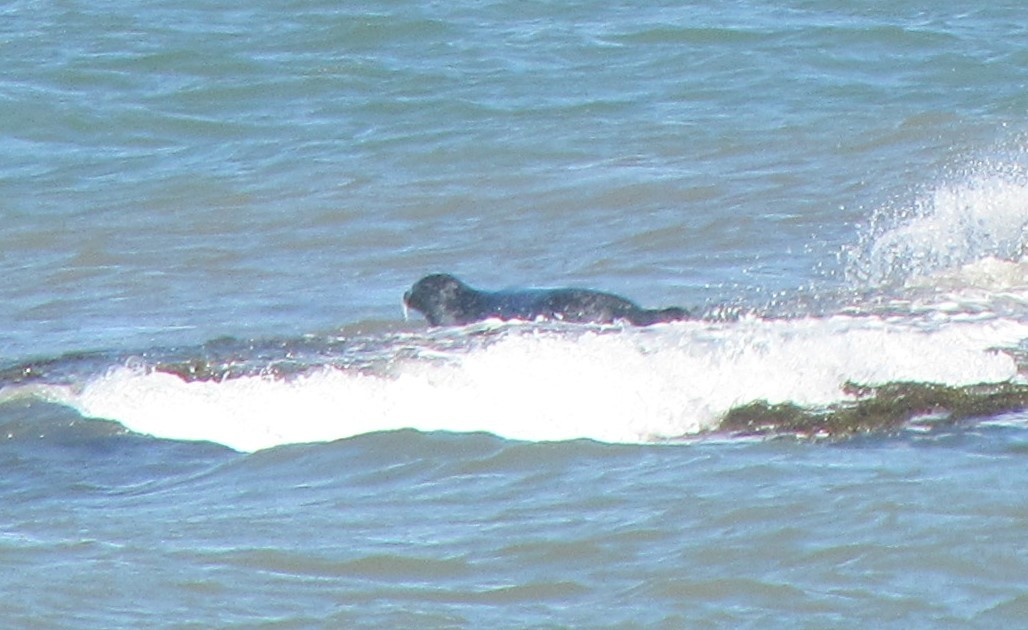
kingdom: Animalia
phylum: Chordata
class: Mammalia
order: Carnivora
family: Phocidae
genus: Phoca
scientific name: Phoca vitulina
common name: Harbor seal
